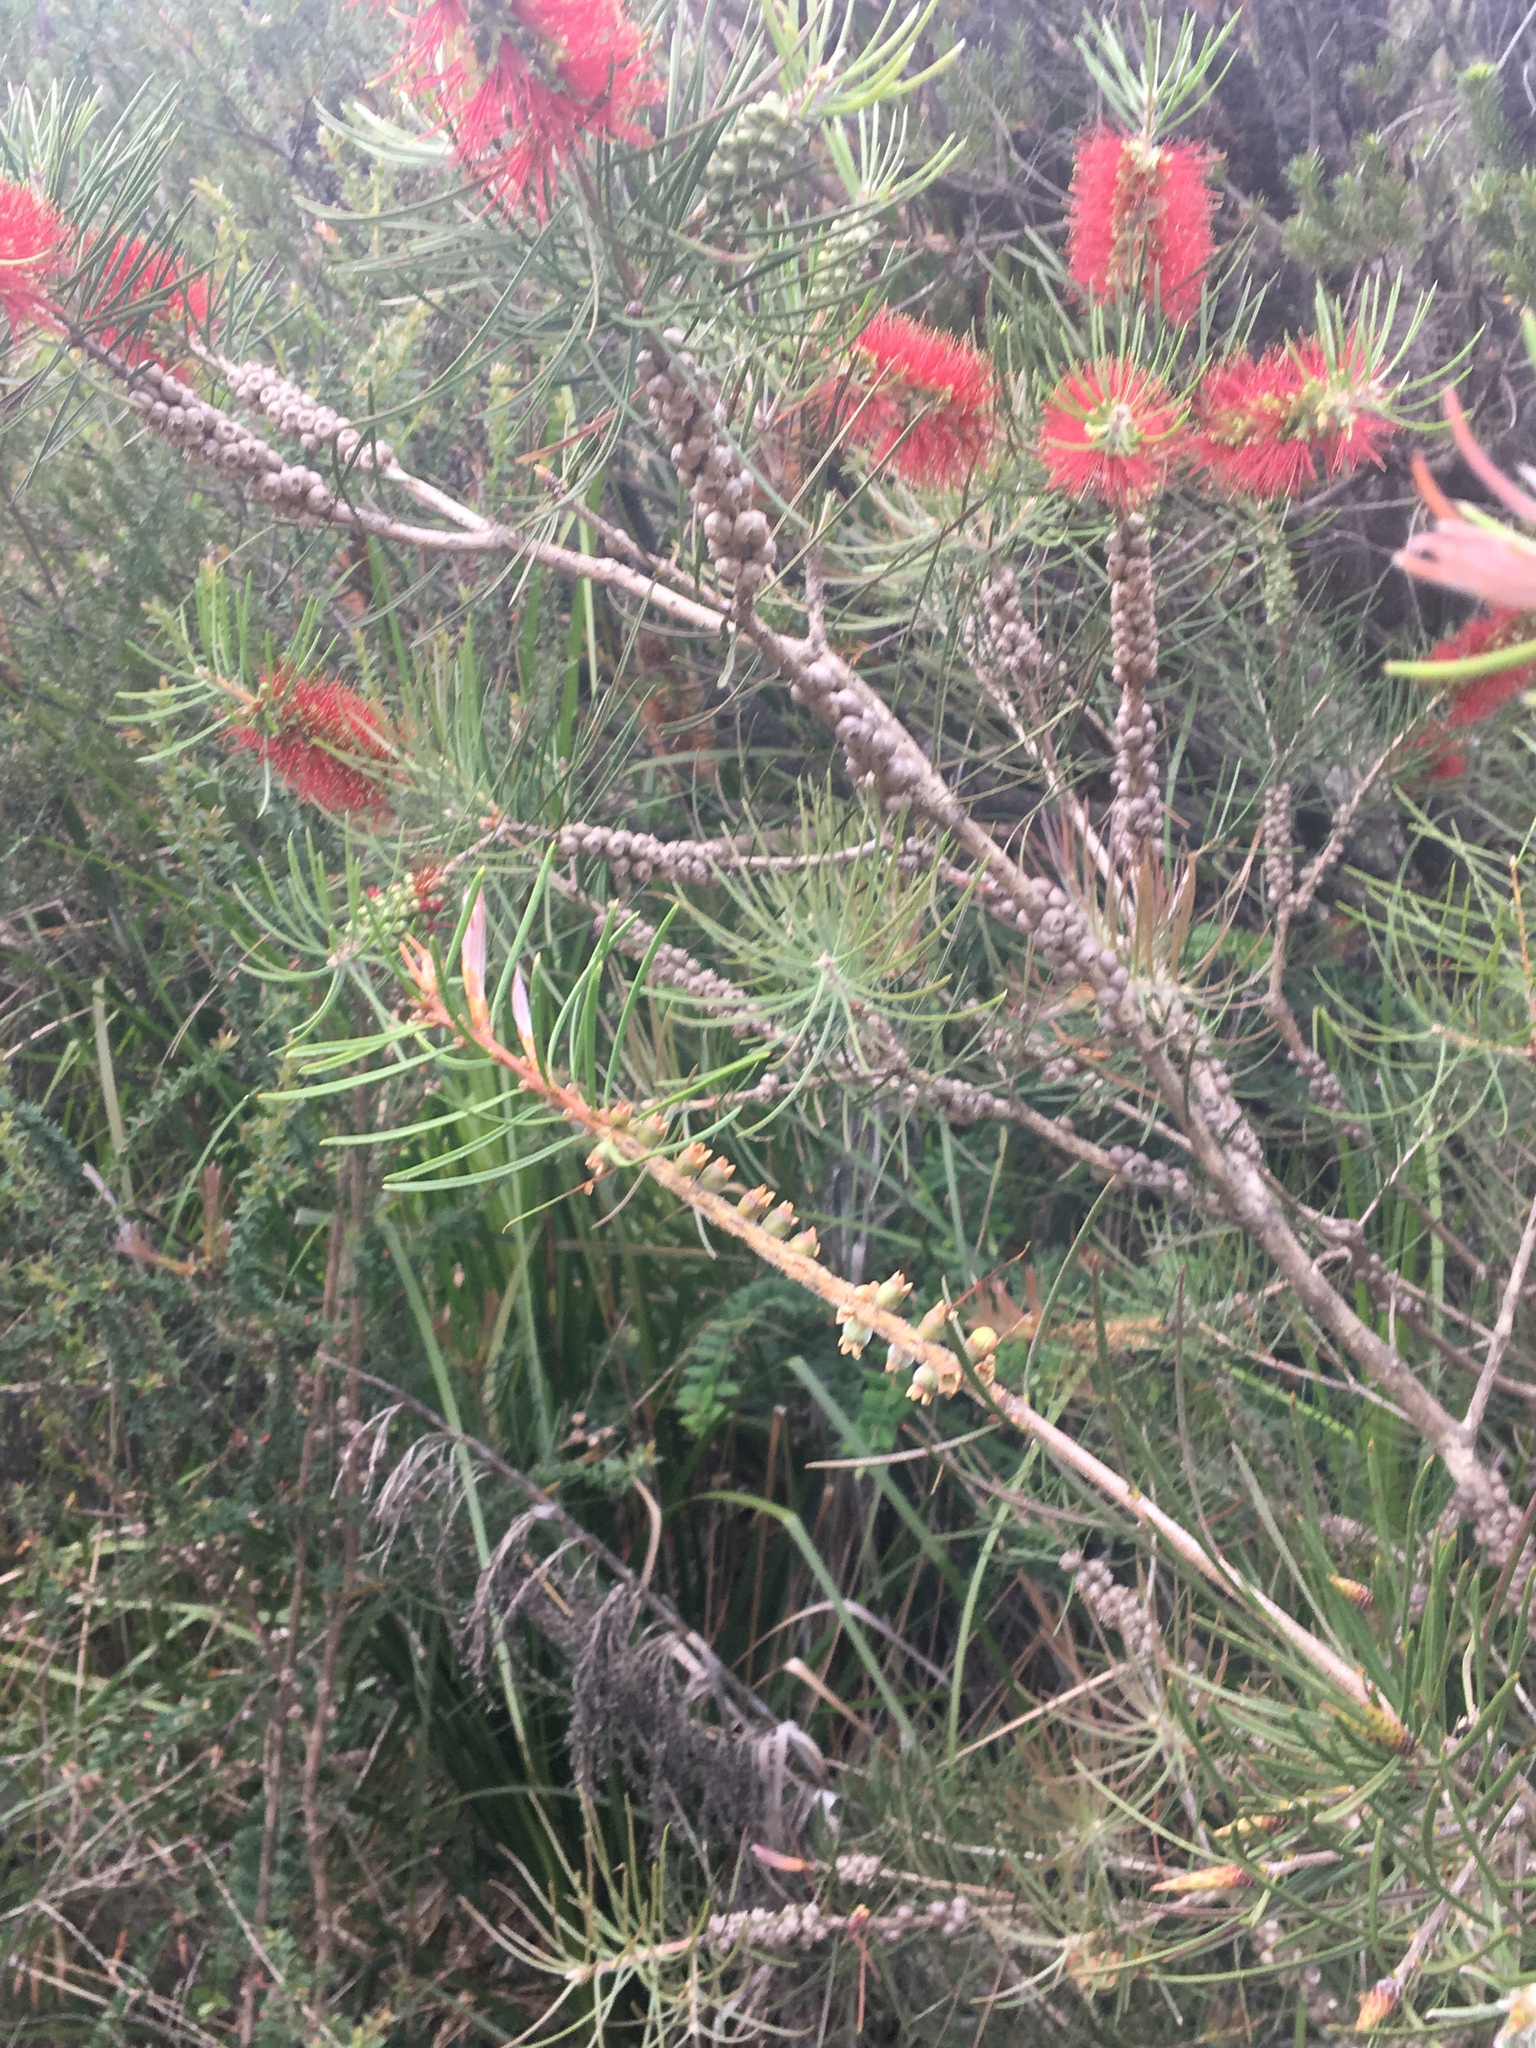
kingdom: Plantae
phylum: Tracheophyta
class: Magnoliopsida
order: Myrtales
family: Myrtaceae
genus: Callistemon
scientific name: Callistemon linearis
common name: Narrow-leaf bottlebrush
